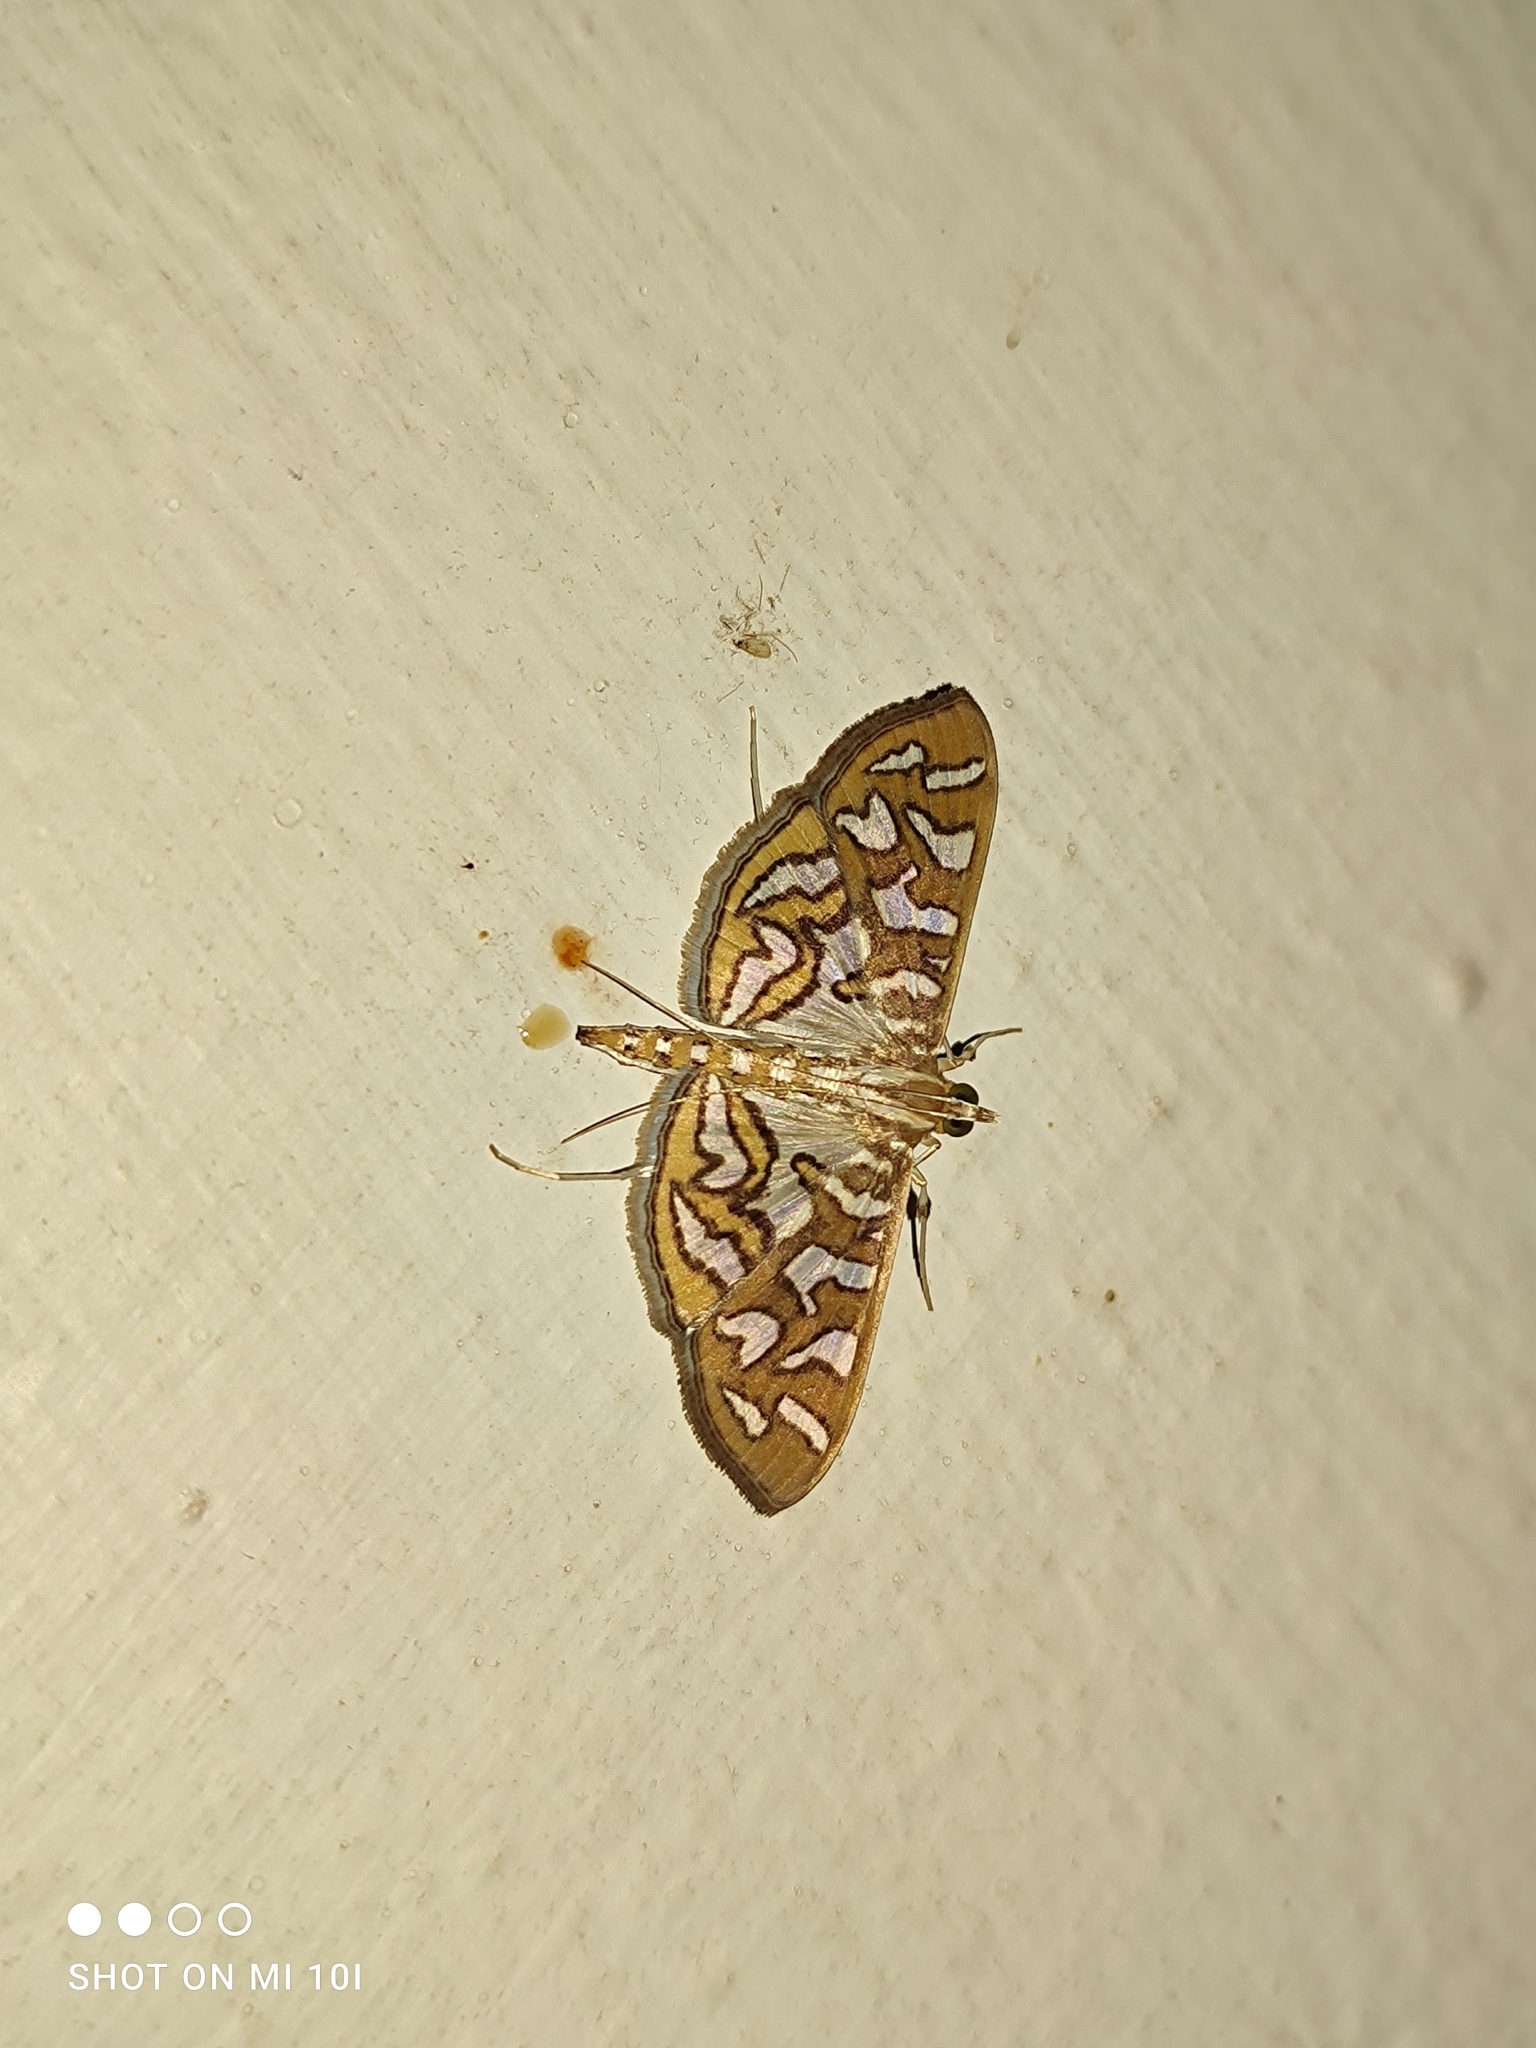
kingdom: Animalia
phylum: Arthropoda
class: Insecta
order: Lepidoptera
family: Crambidae
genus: Nausinoe
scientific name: Nausinoe perspectata
